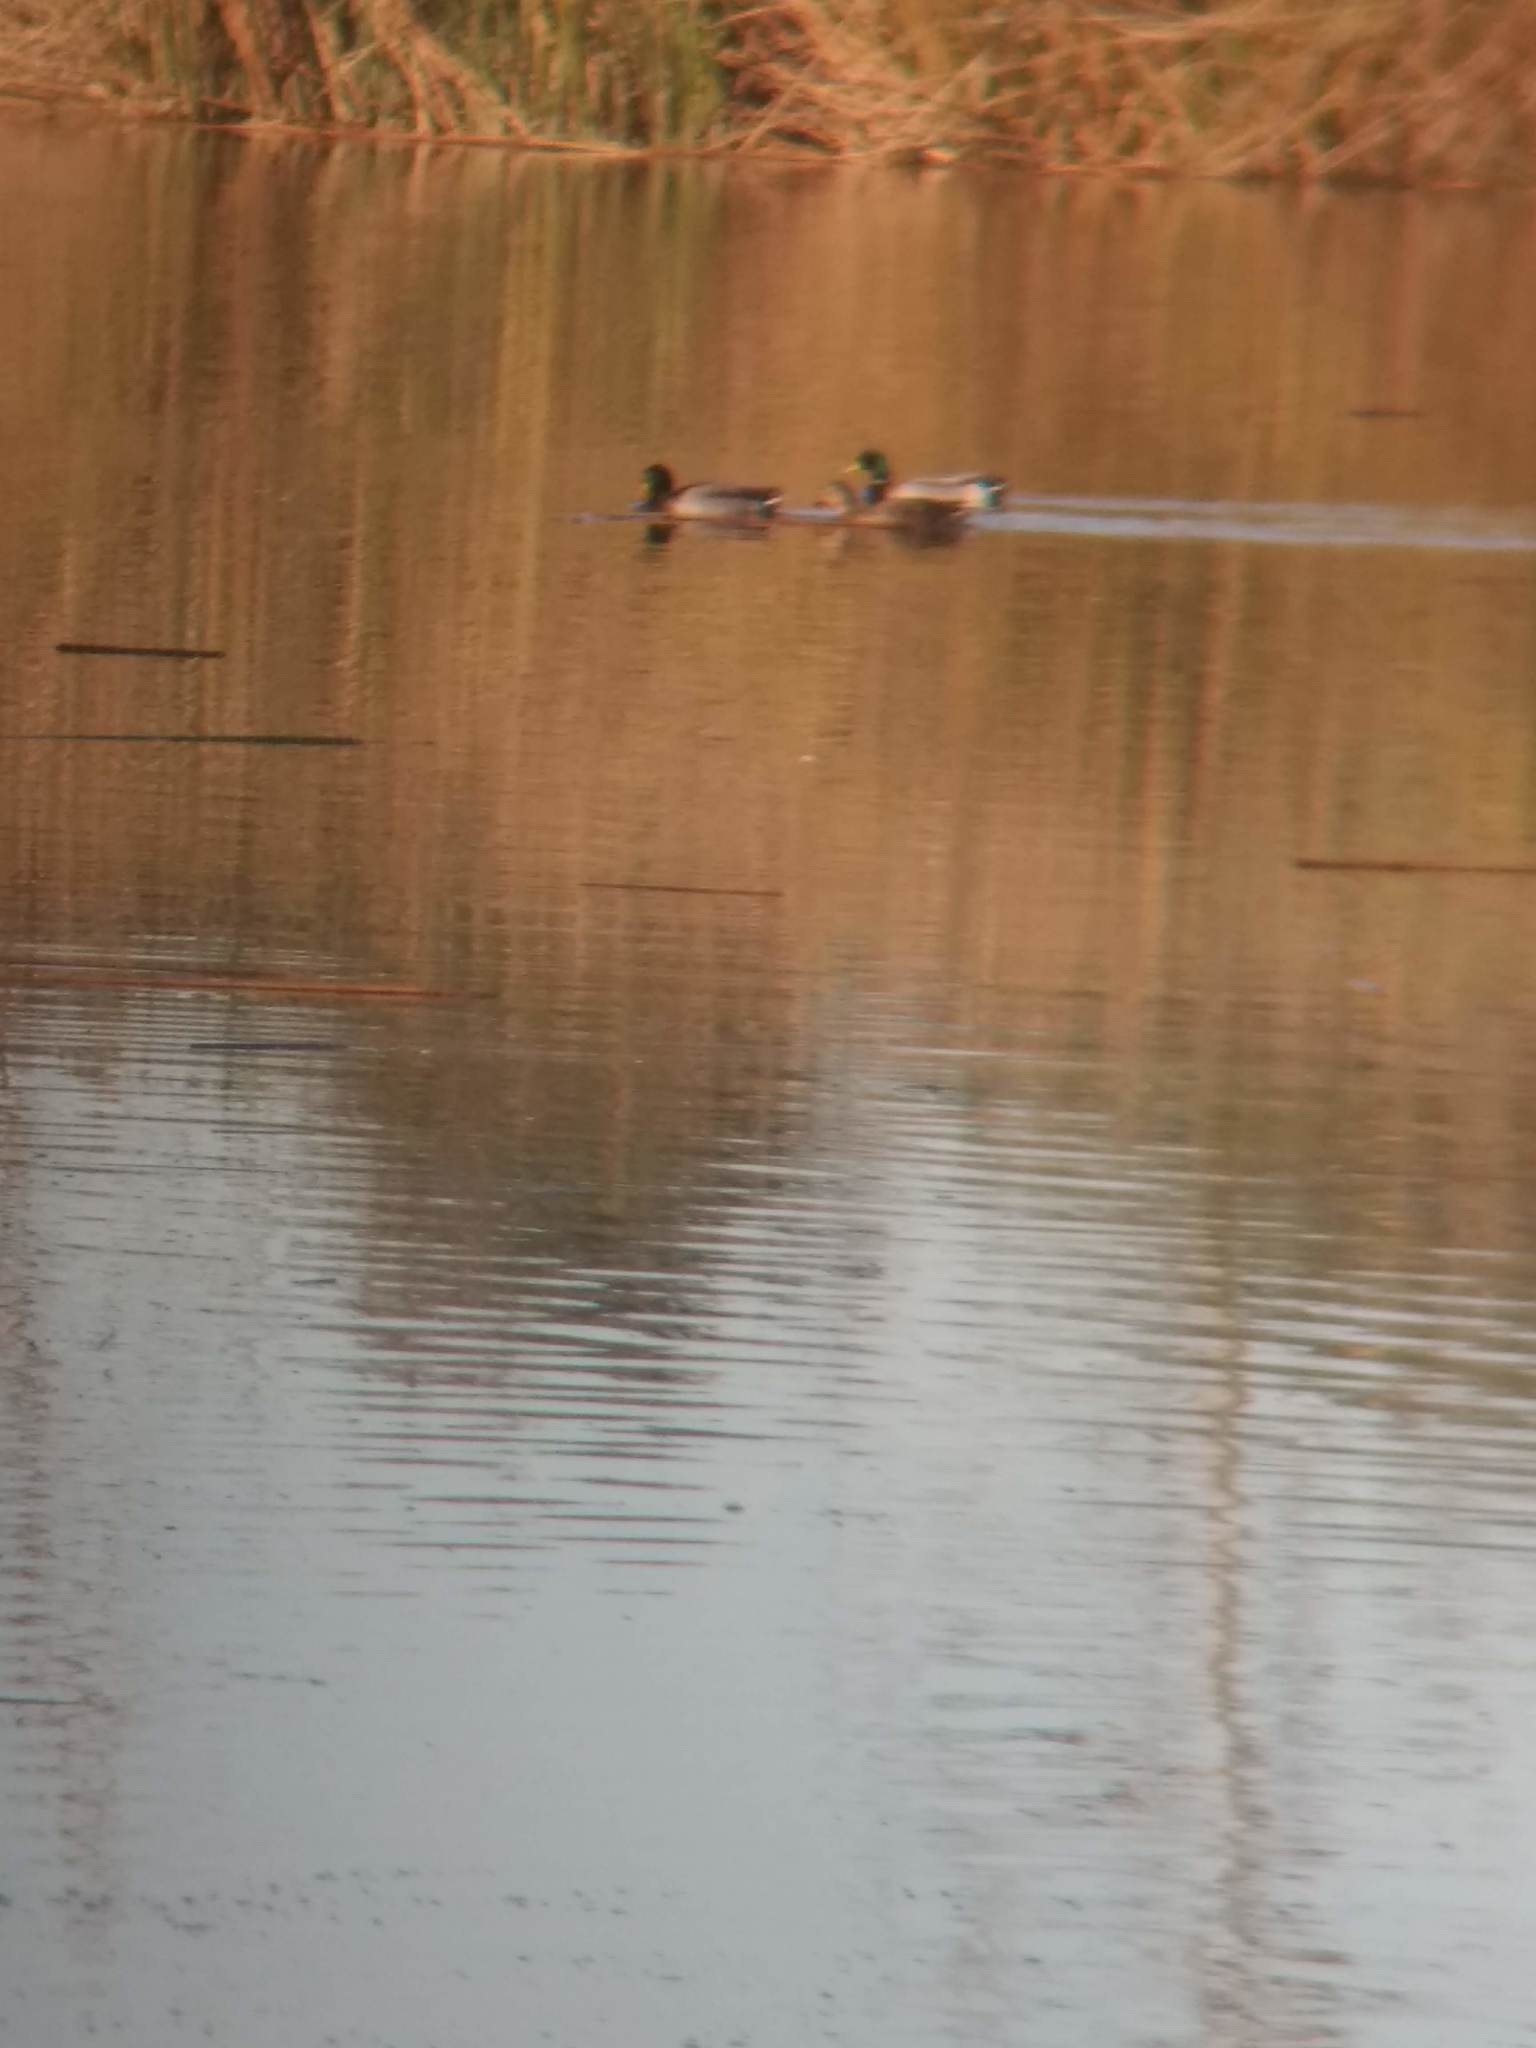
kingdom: Animalia
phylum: Chordata
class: Aves
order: Anseriformes
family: Anatidae
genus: Anas
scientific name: Anas platyrhynchos
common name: Mallard
